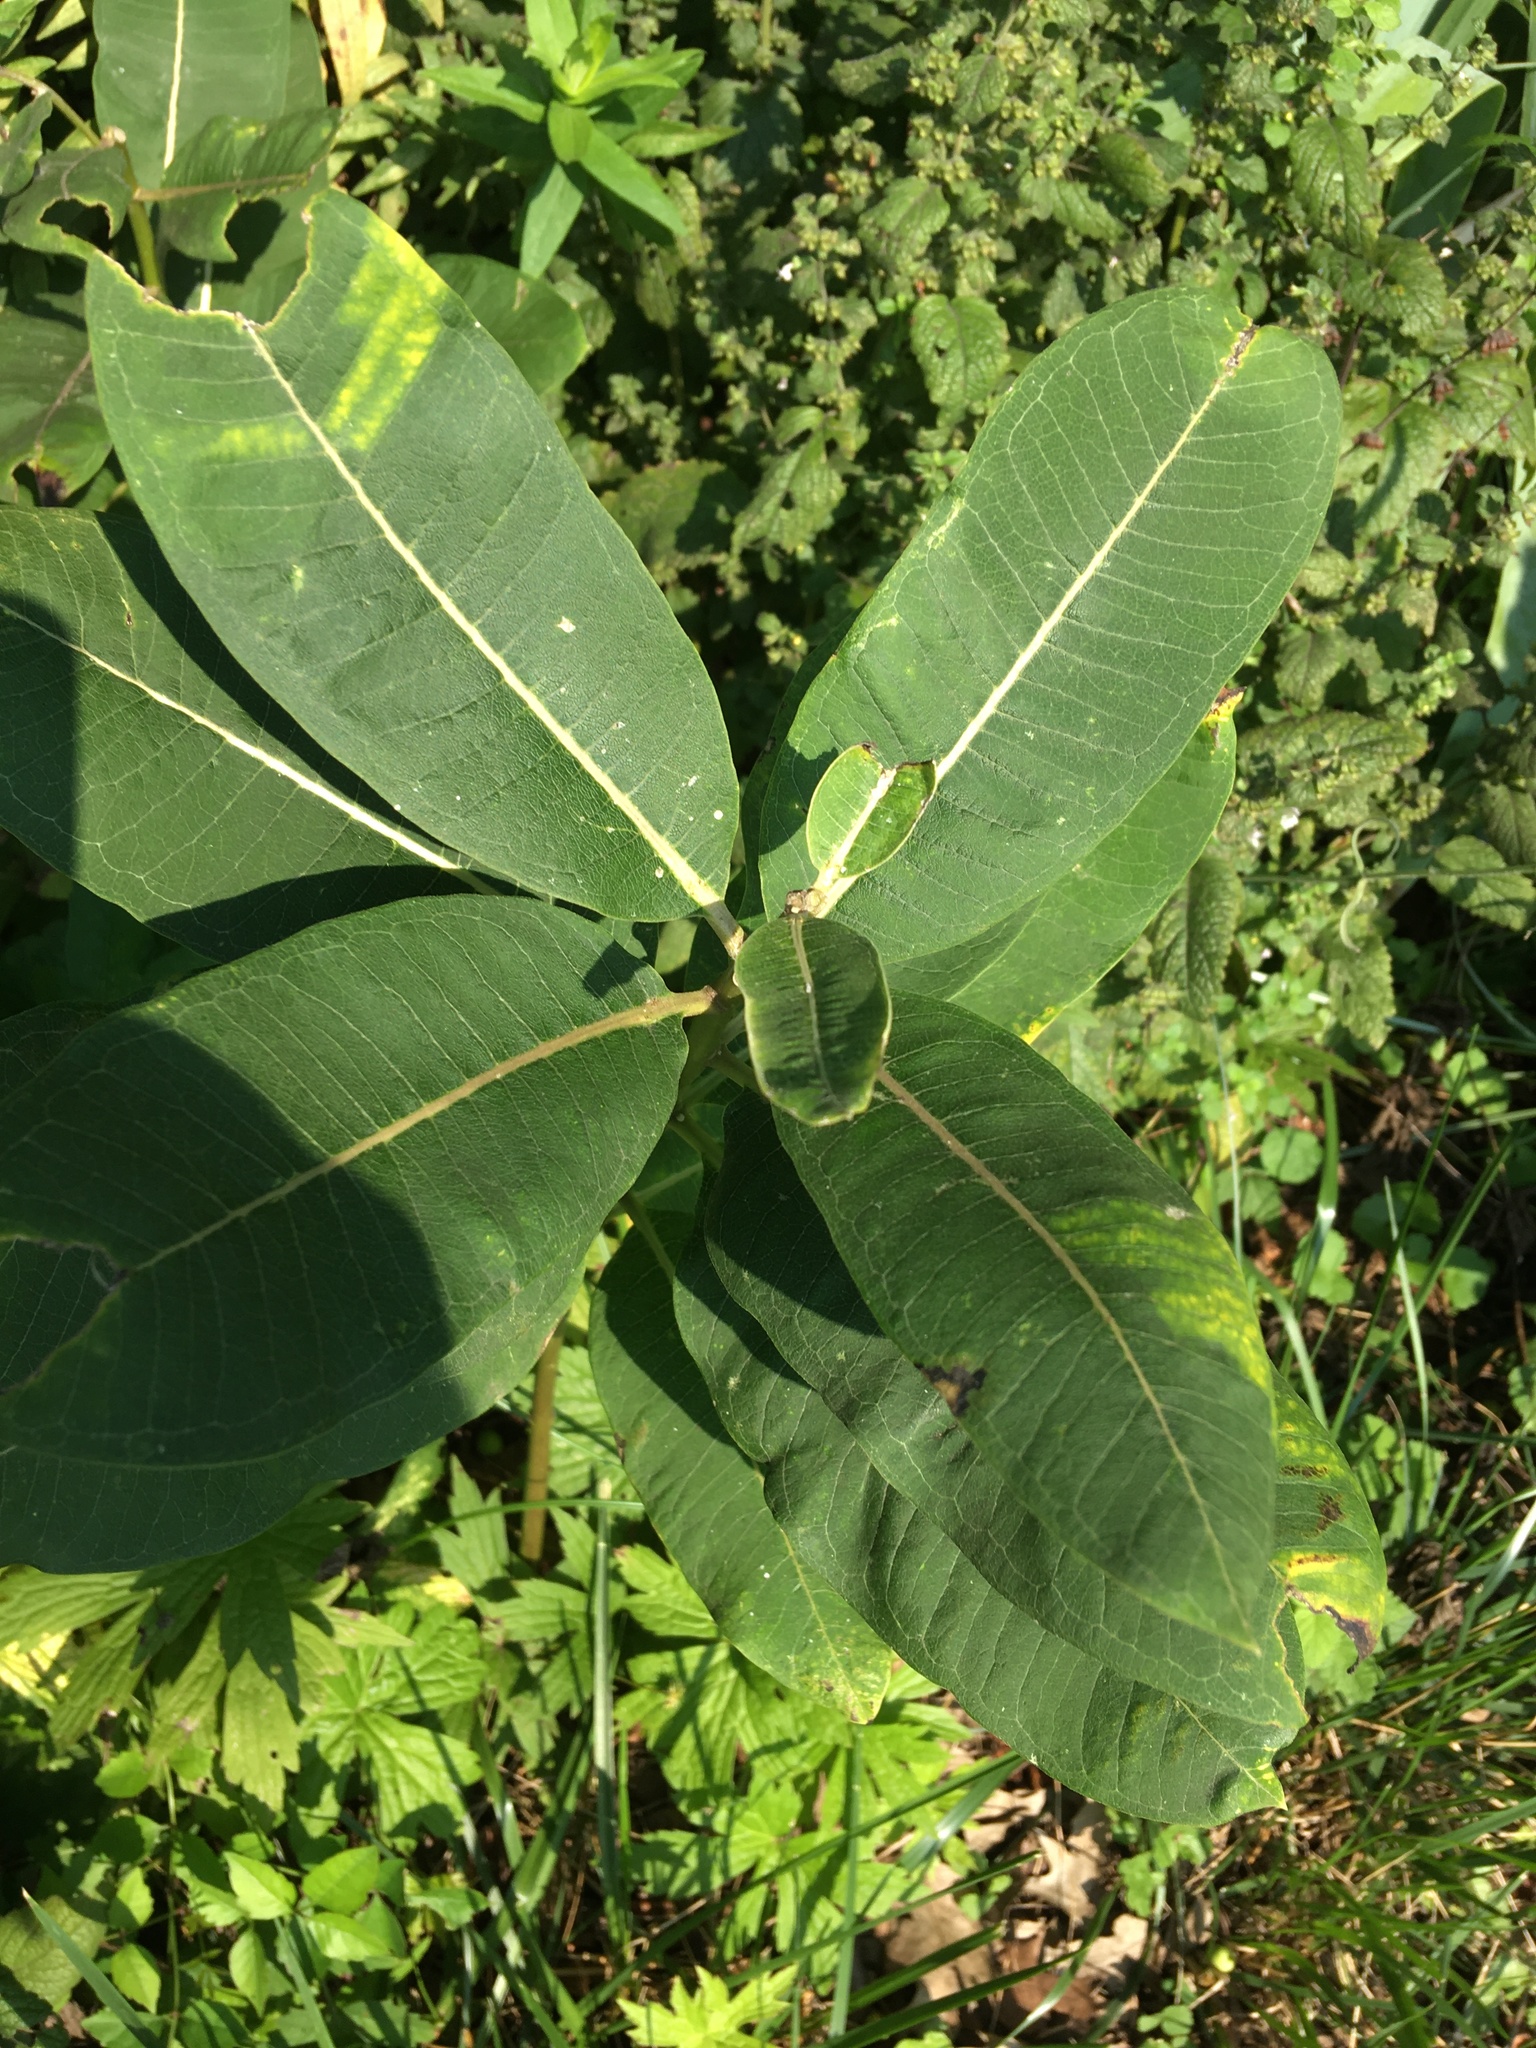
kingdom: Plantae
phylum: Tracheophyta
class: Magnoliopsida
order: Gentianales
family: Apocynaceae
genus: Asclepias
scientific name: Asclepias syriaca
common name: Common milkweed
